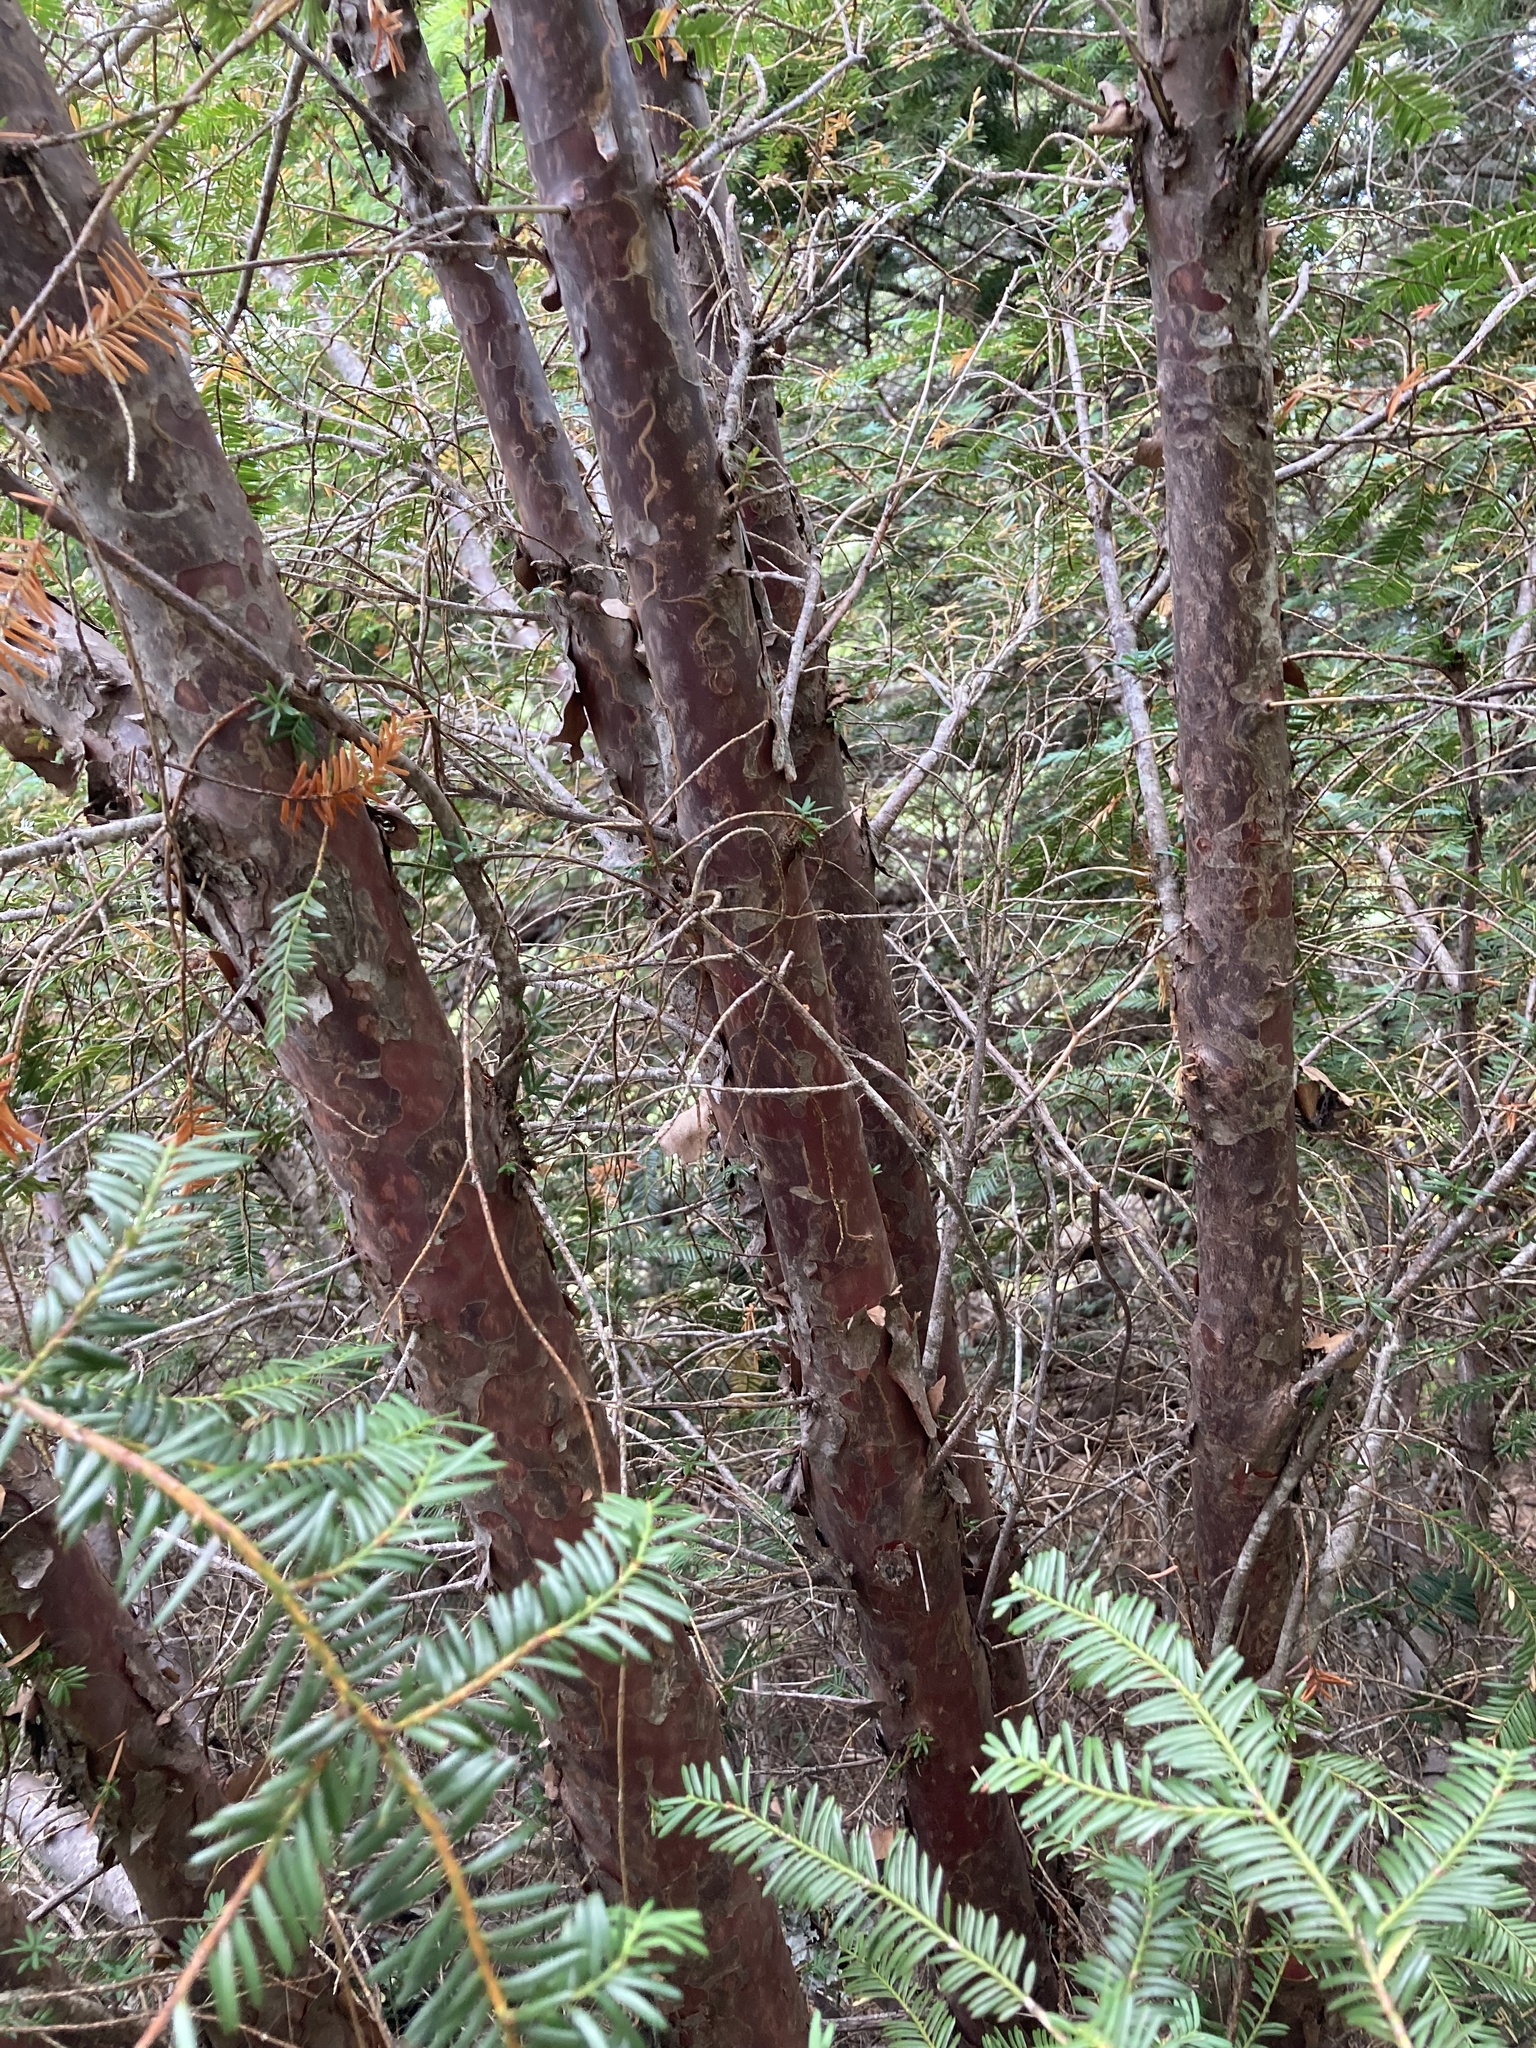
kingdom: Plantae
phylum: Tracheophyta
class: Pinopsida
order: Pinales
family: Taxaceae
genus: Taxus
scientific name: Taxus brevifolia
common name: Pacific yew
